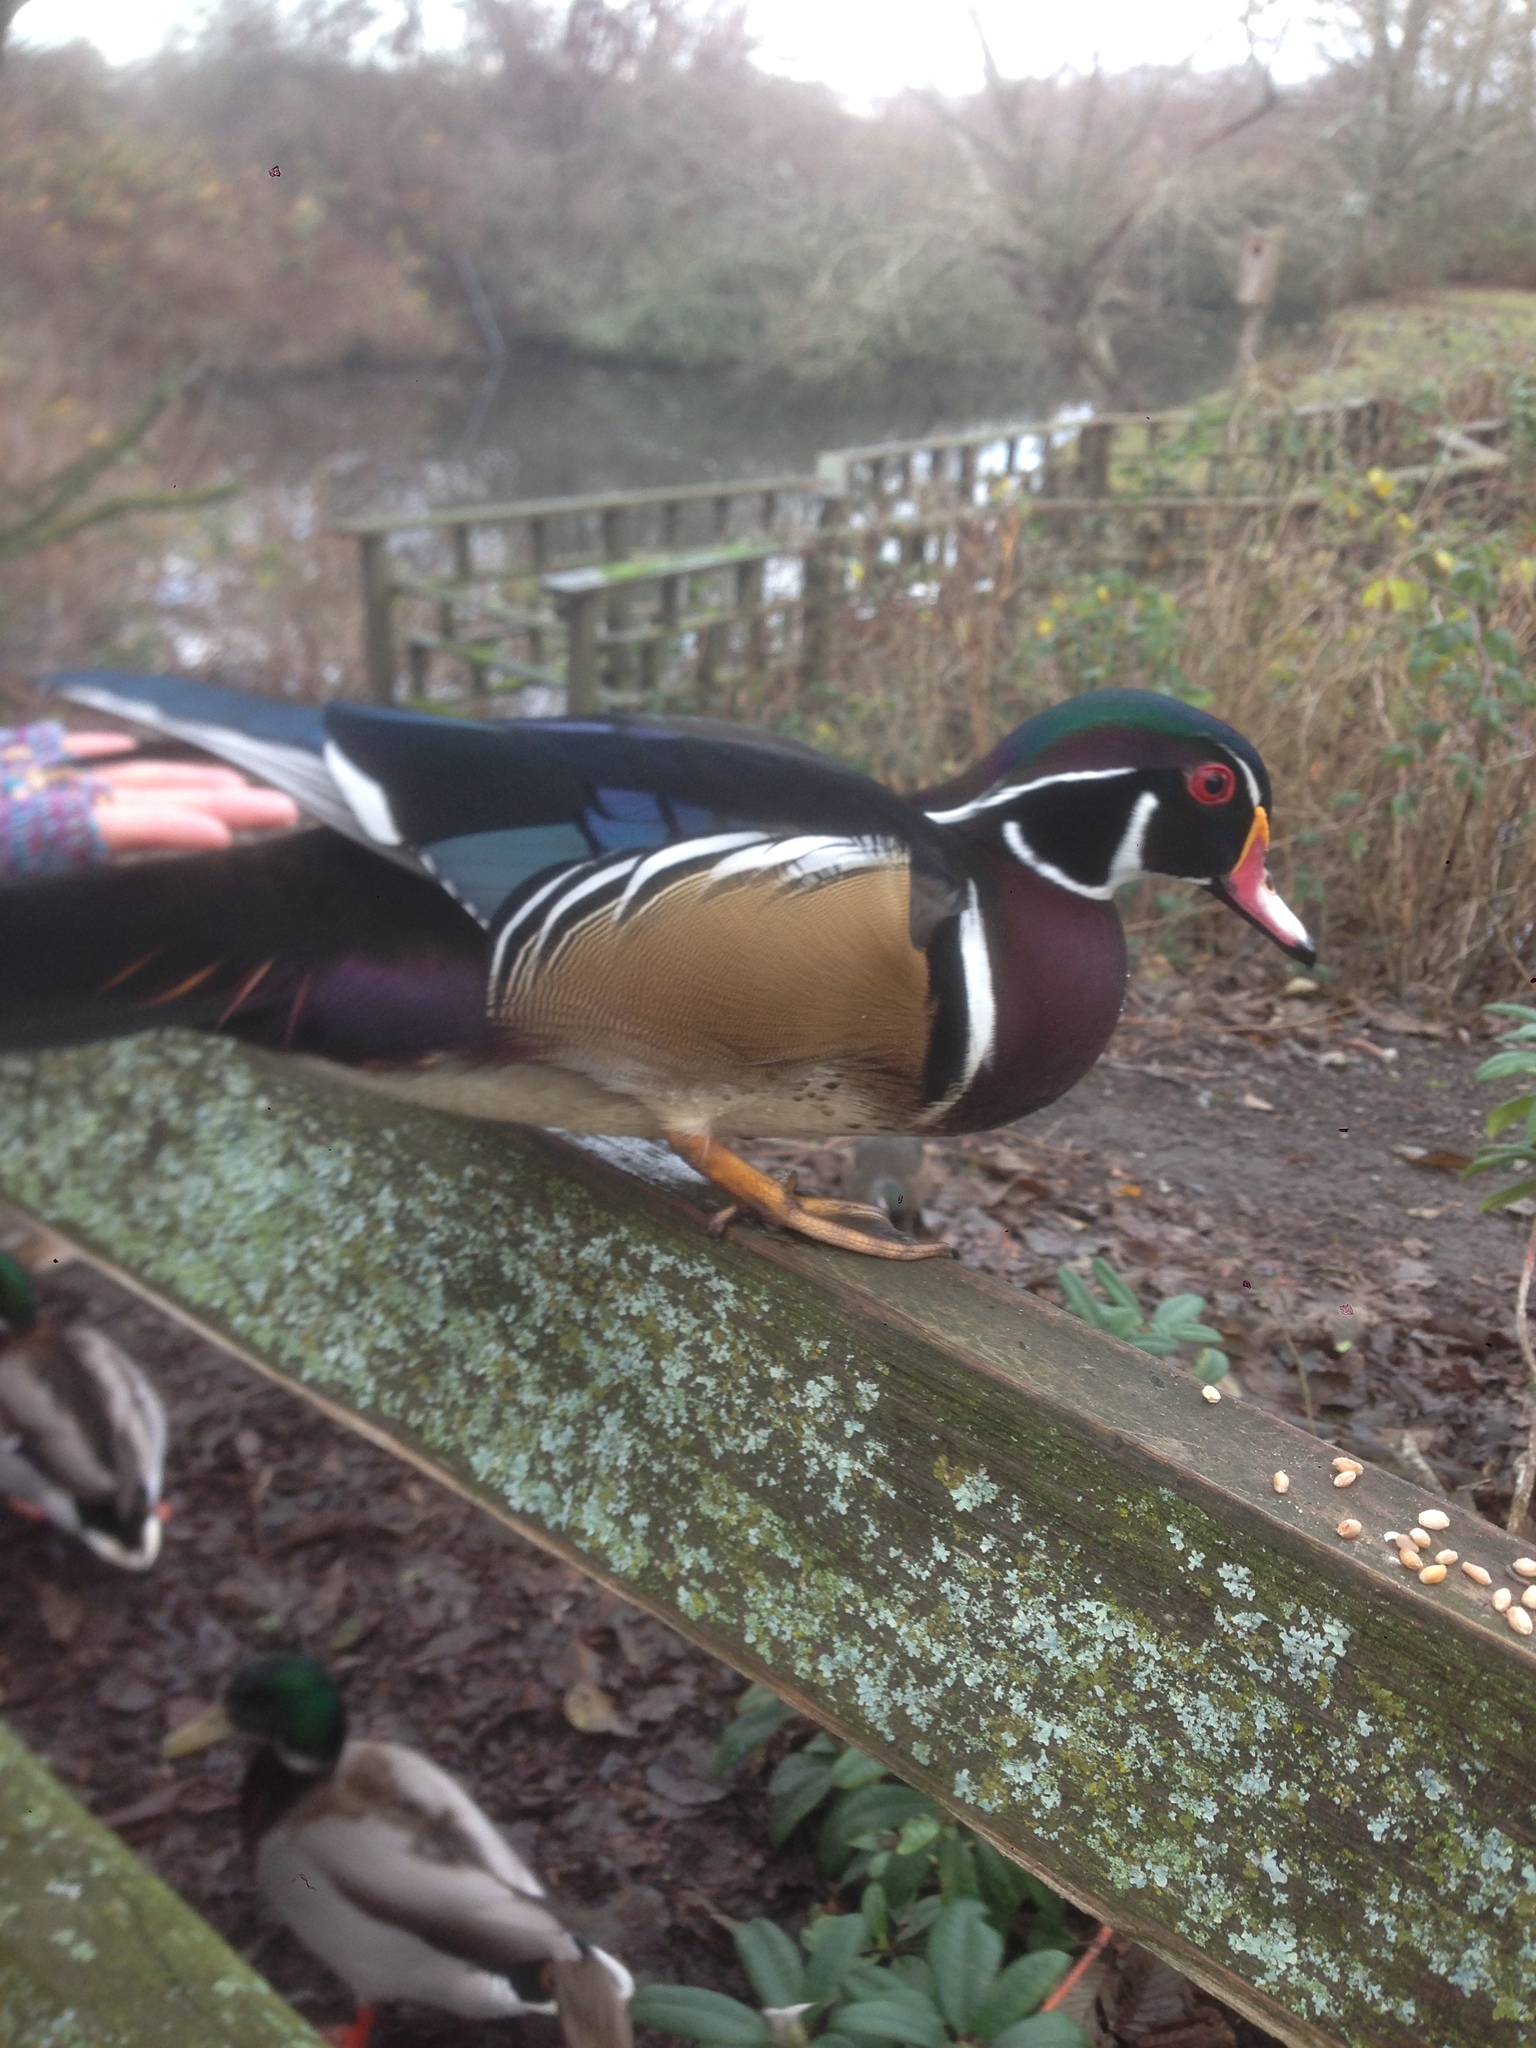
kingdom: Animalia
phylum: Chordata
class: Aves
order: Anseriformes
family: Anatidae
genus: Aix
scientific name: Aix sponsa
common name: Wood duck
